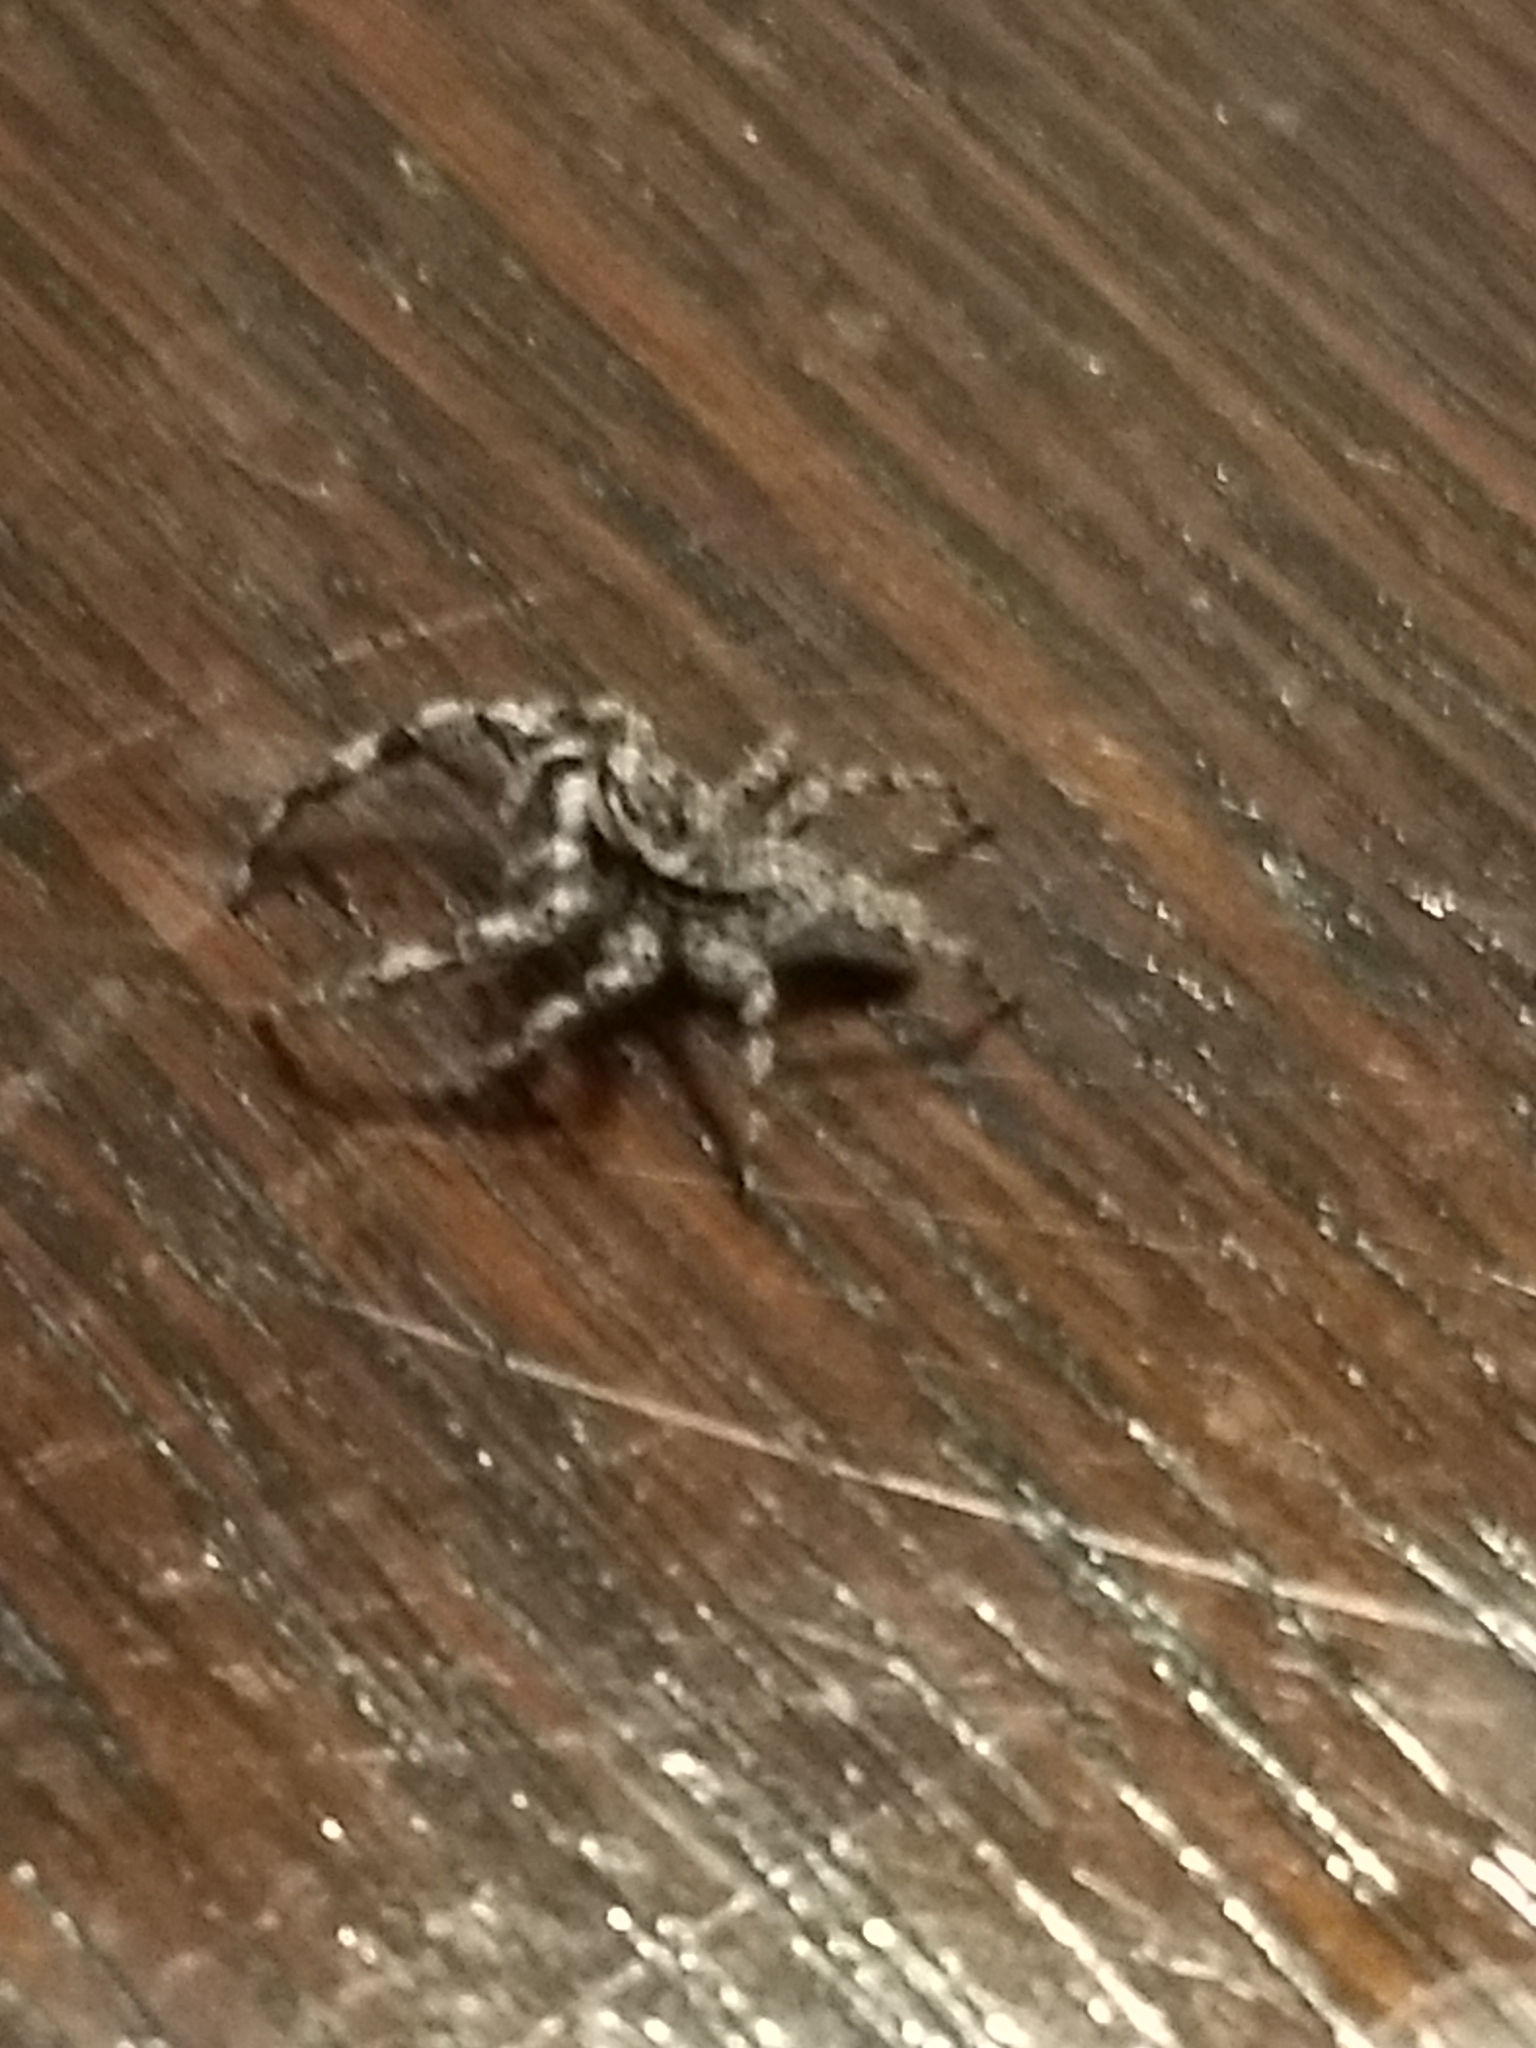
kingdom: Animalia
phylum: Arthropoda
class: Arachnida
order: Araneae
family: Salticidae
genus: Platycryptus
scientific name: Platycryptus undatus
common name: Tan jumping spider
